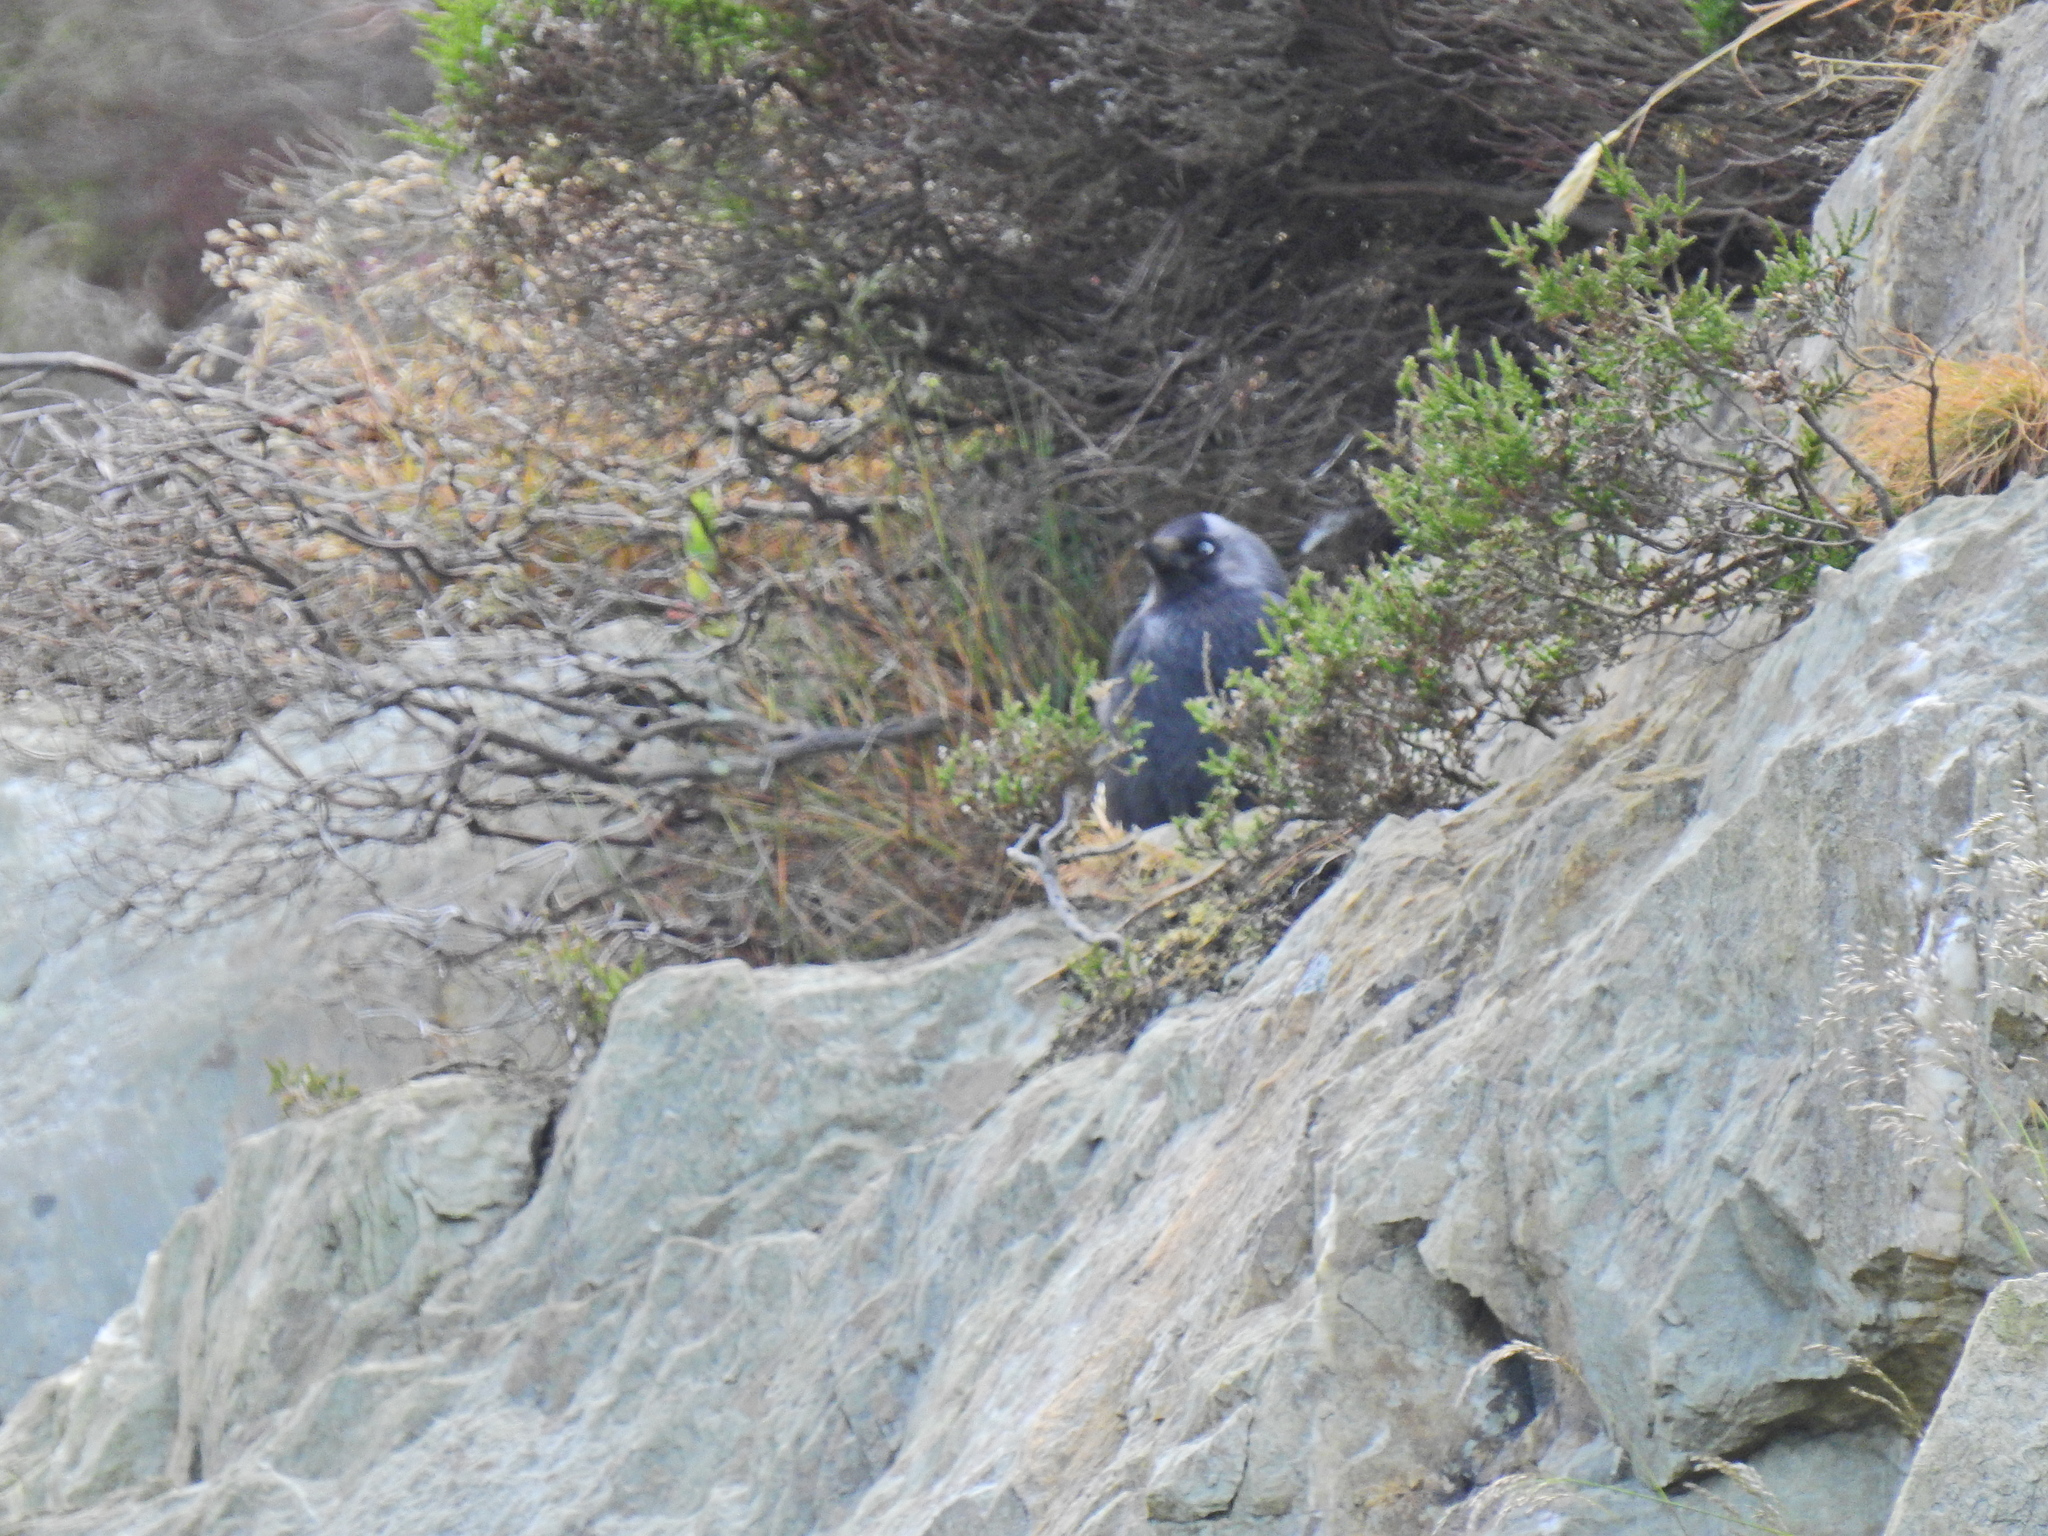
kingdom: Animalia
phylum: Chordata
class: Aves
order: Passeriformes
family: Corvidae
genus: Coloeus
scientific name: Coloeus monedula
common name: Western jackdaw
